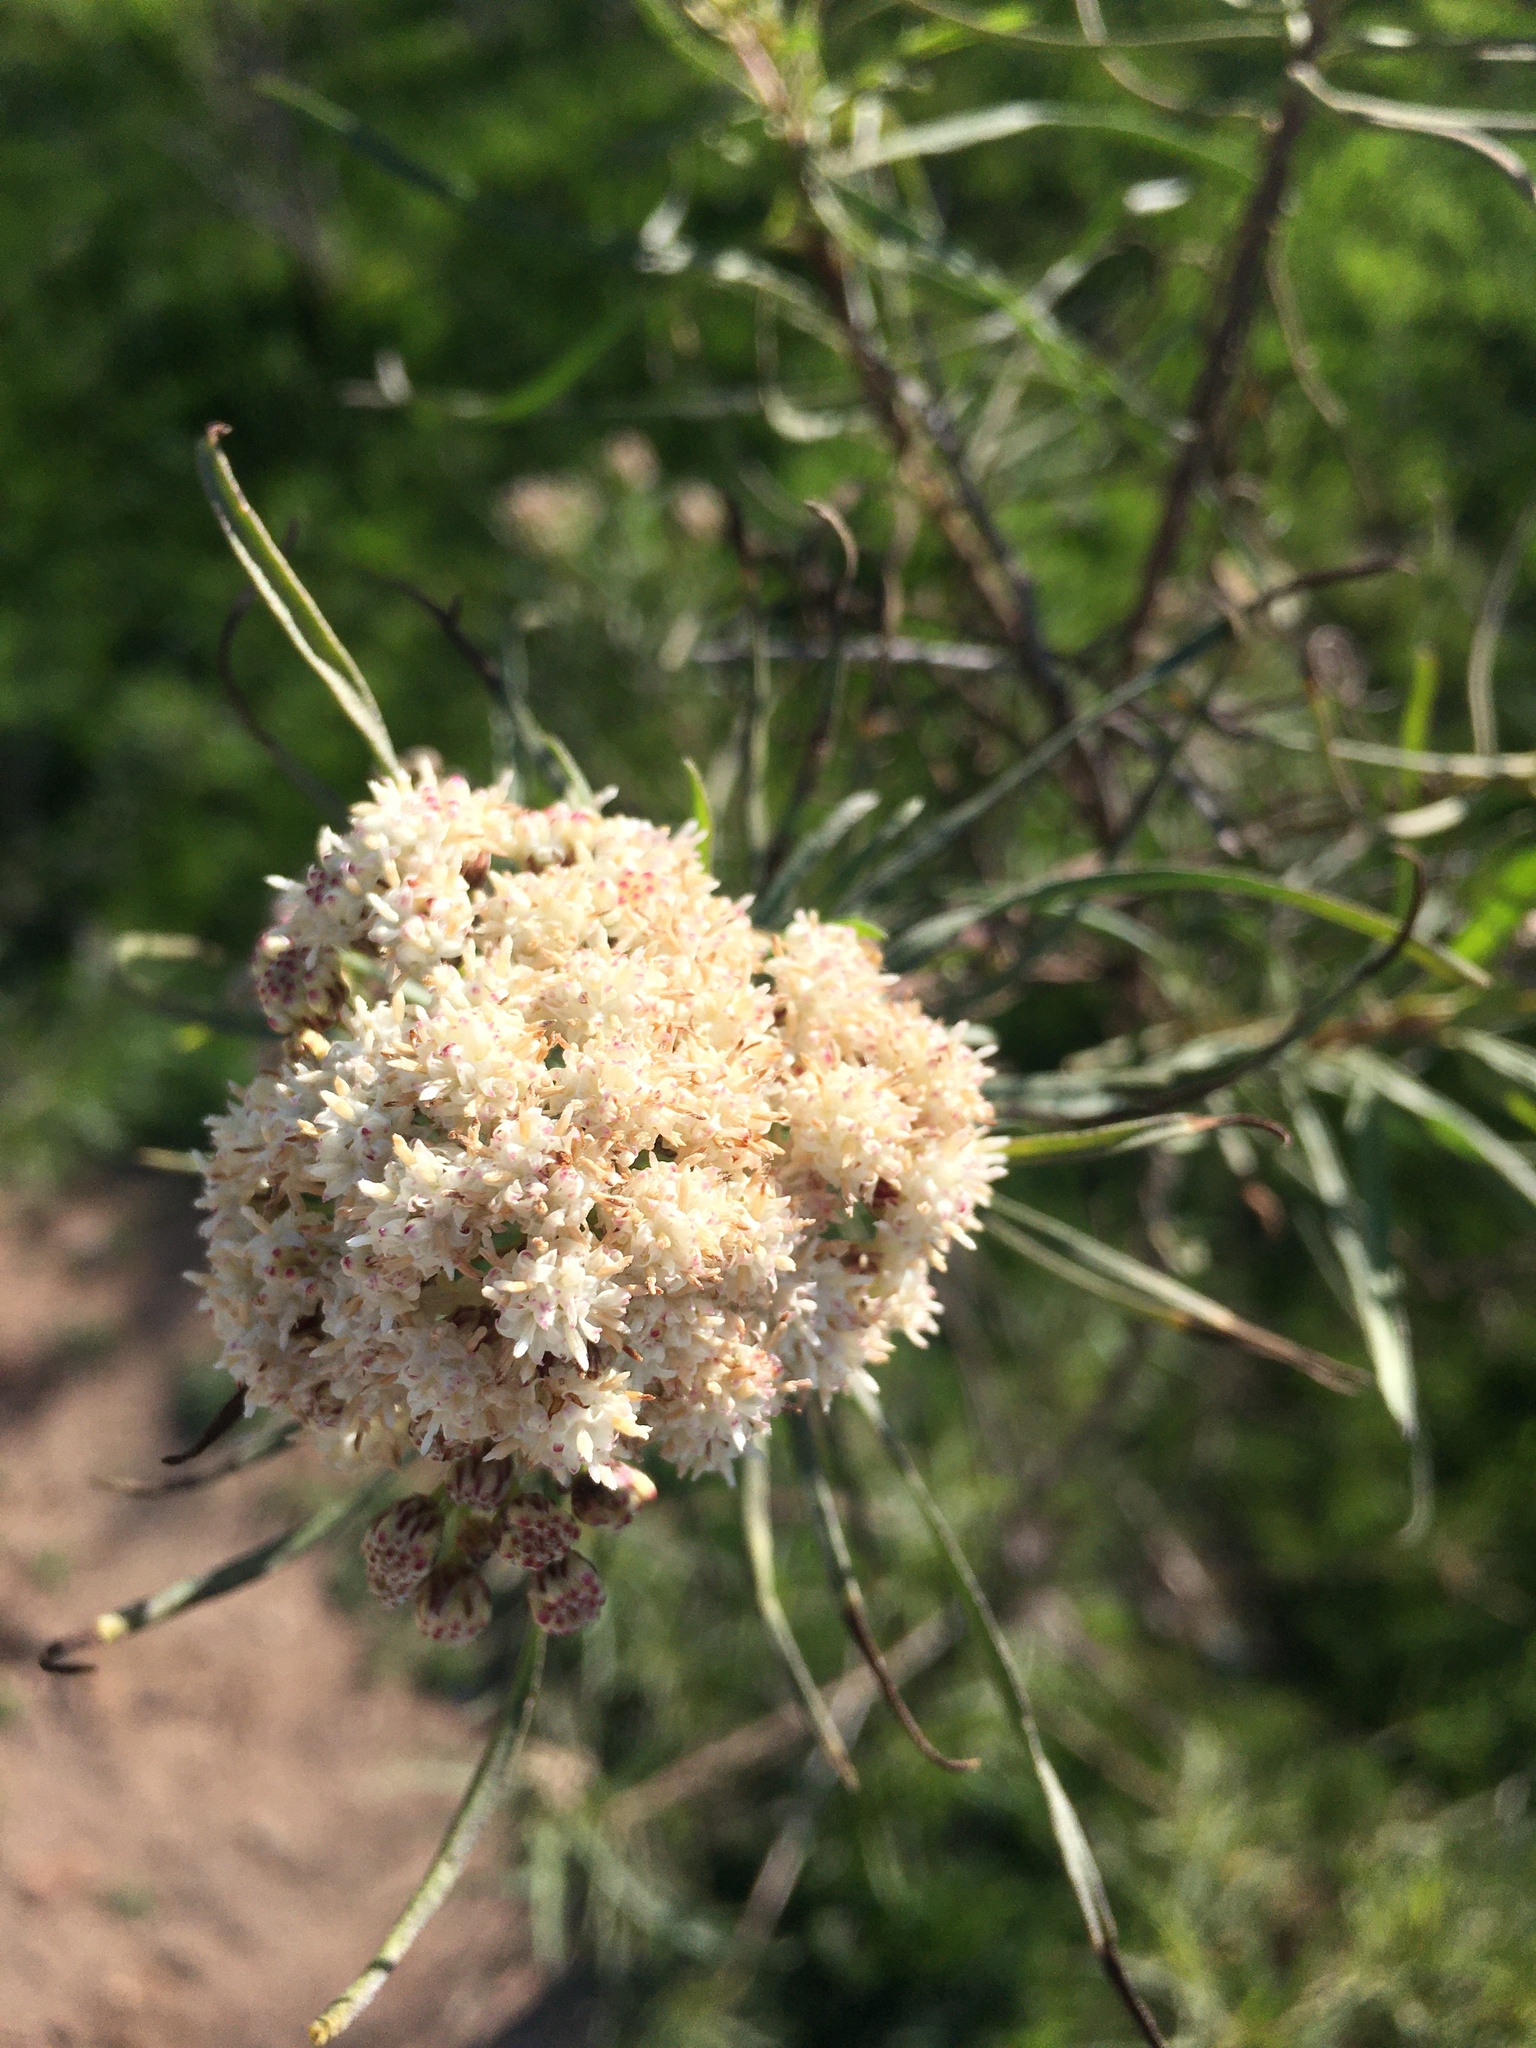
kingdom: Plantae
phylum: Tracheophyta
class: Magnoliopsida
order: Asterales
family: Asteraceae
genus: Baccharis
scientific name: Baccharis salicifolia
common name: Sticky baccharis
